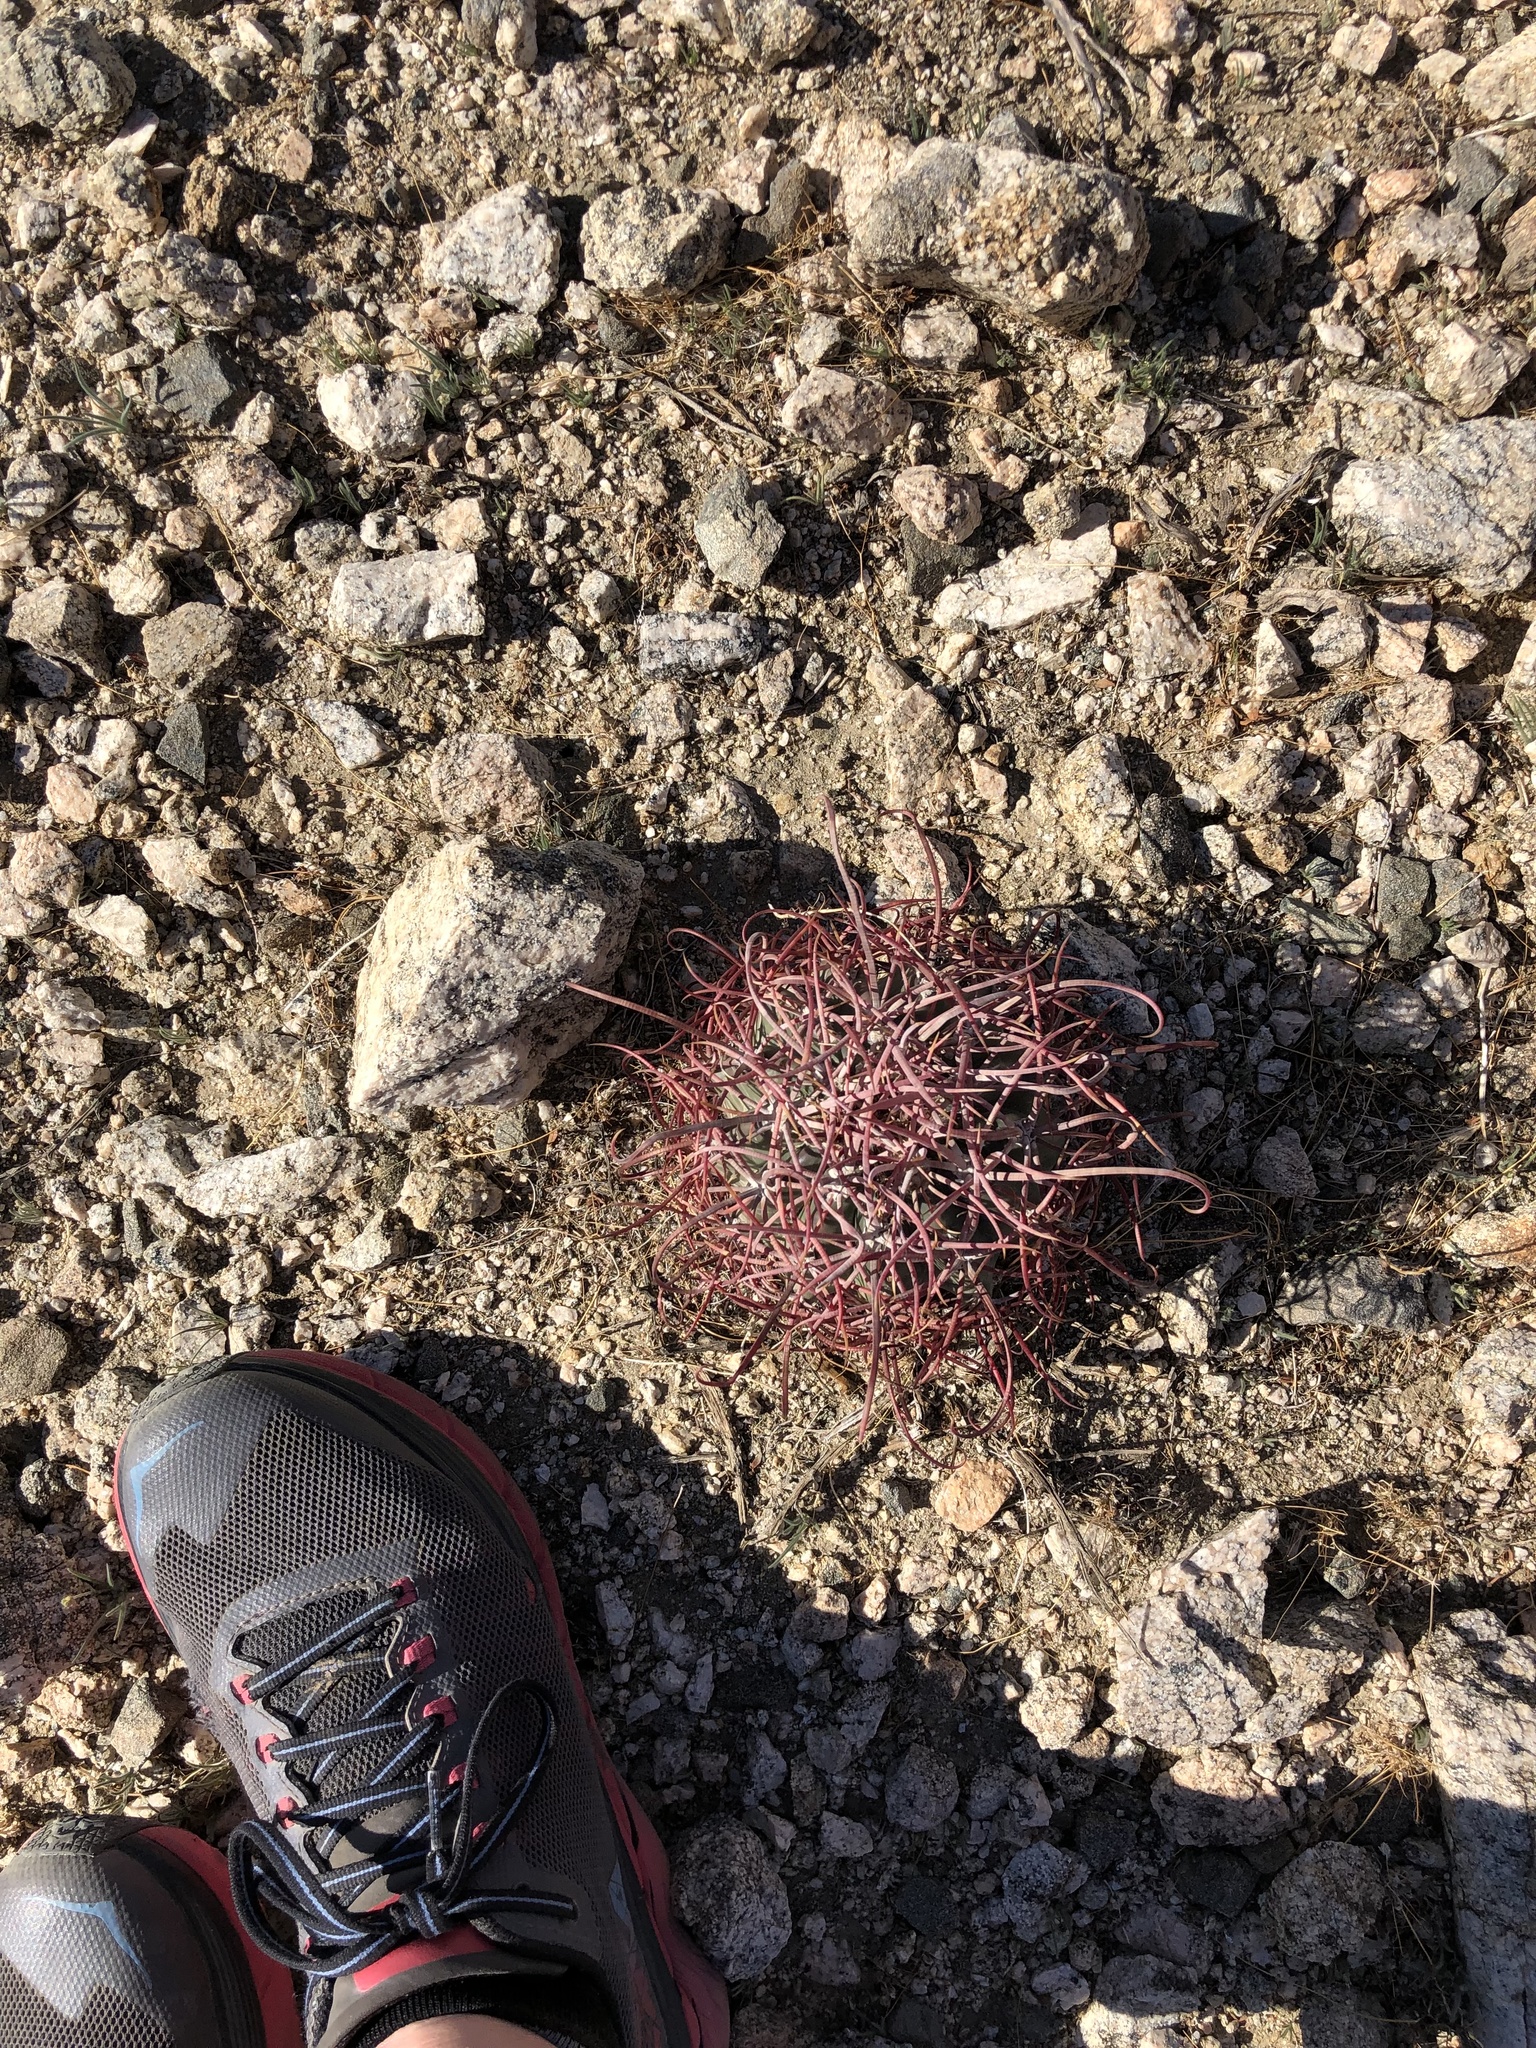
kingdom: Plantae
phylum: Tracheophyta
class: Magnoliopsida
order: Caryophyllales
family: Cactaceae
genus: Ferocactus
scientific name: Ferocactus cylindraceus
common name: California barrel cactus
